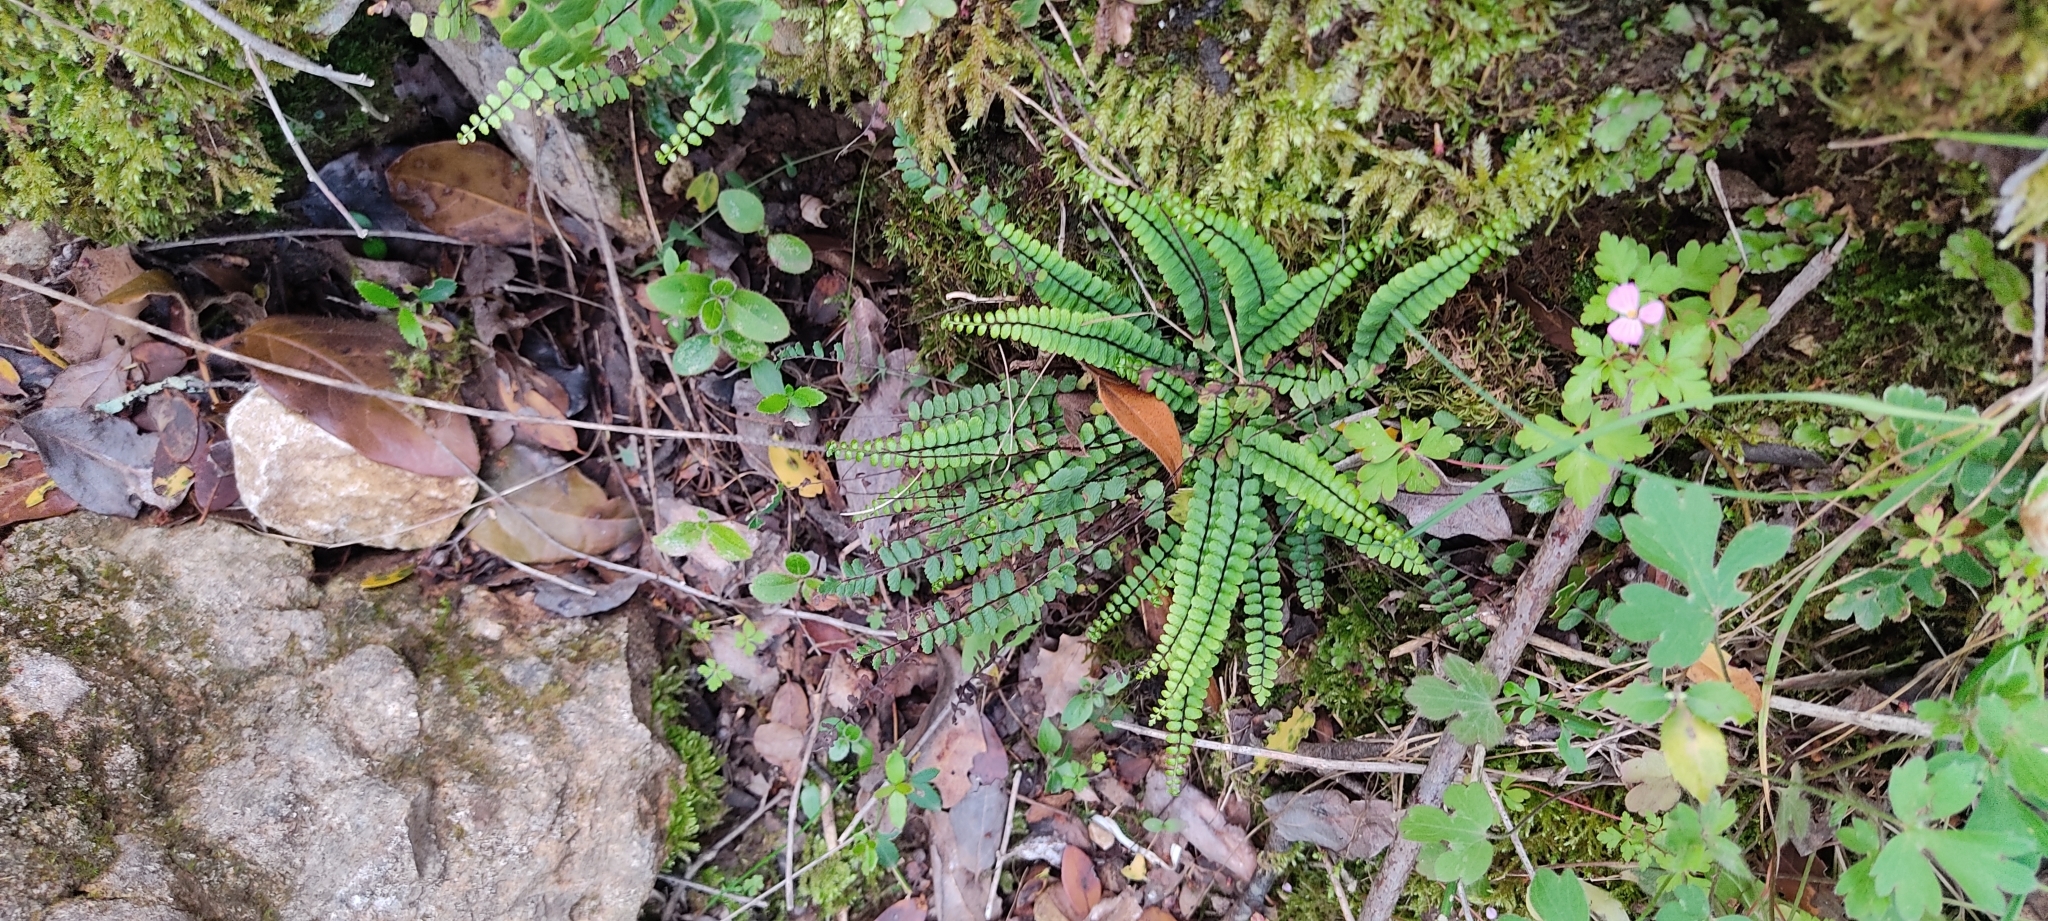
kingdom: Plantae
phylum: Tracheophyta
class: Polypodiopsida
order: Polypodiales
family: Aspleniaceae
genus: Asplenium
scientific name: Asplenium quadrivalens
